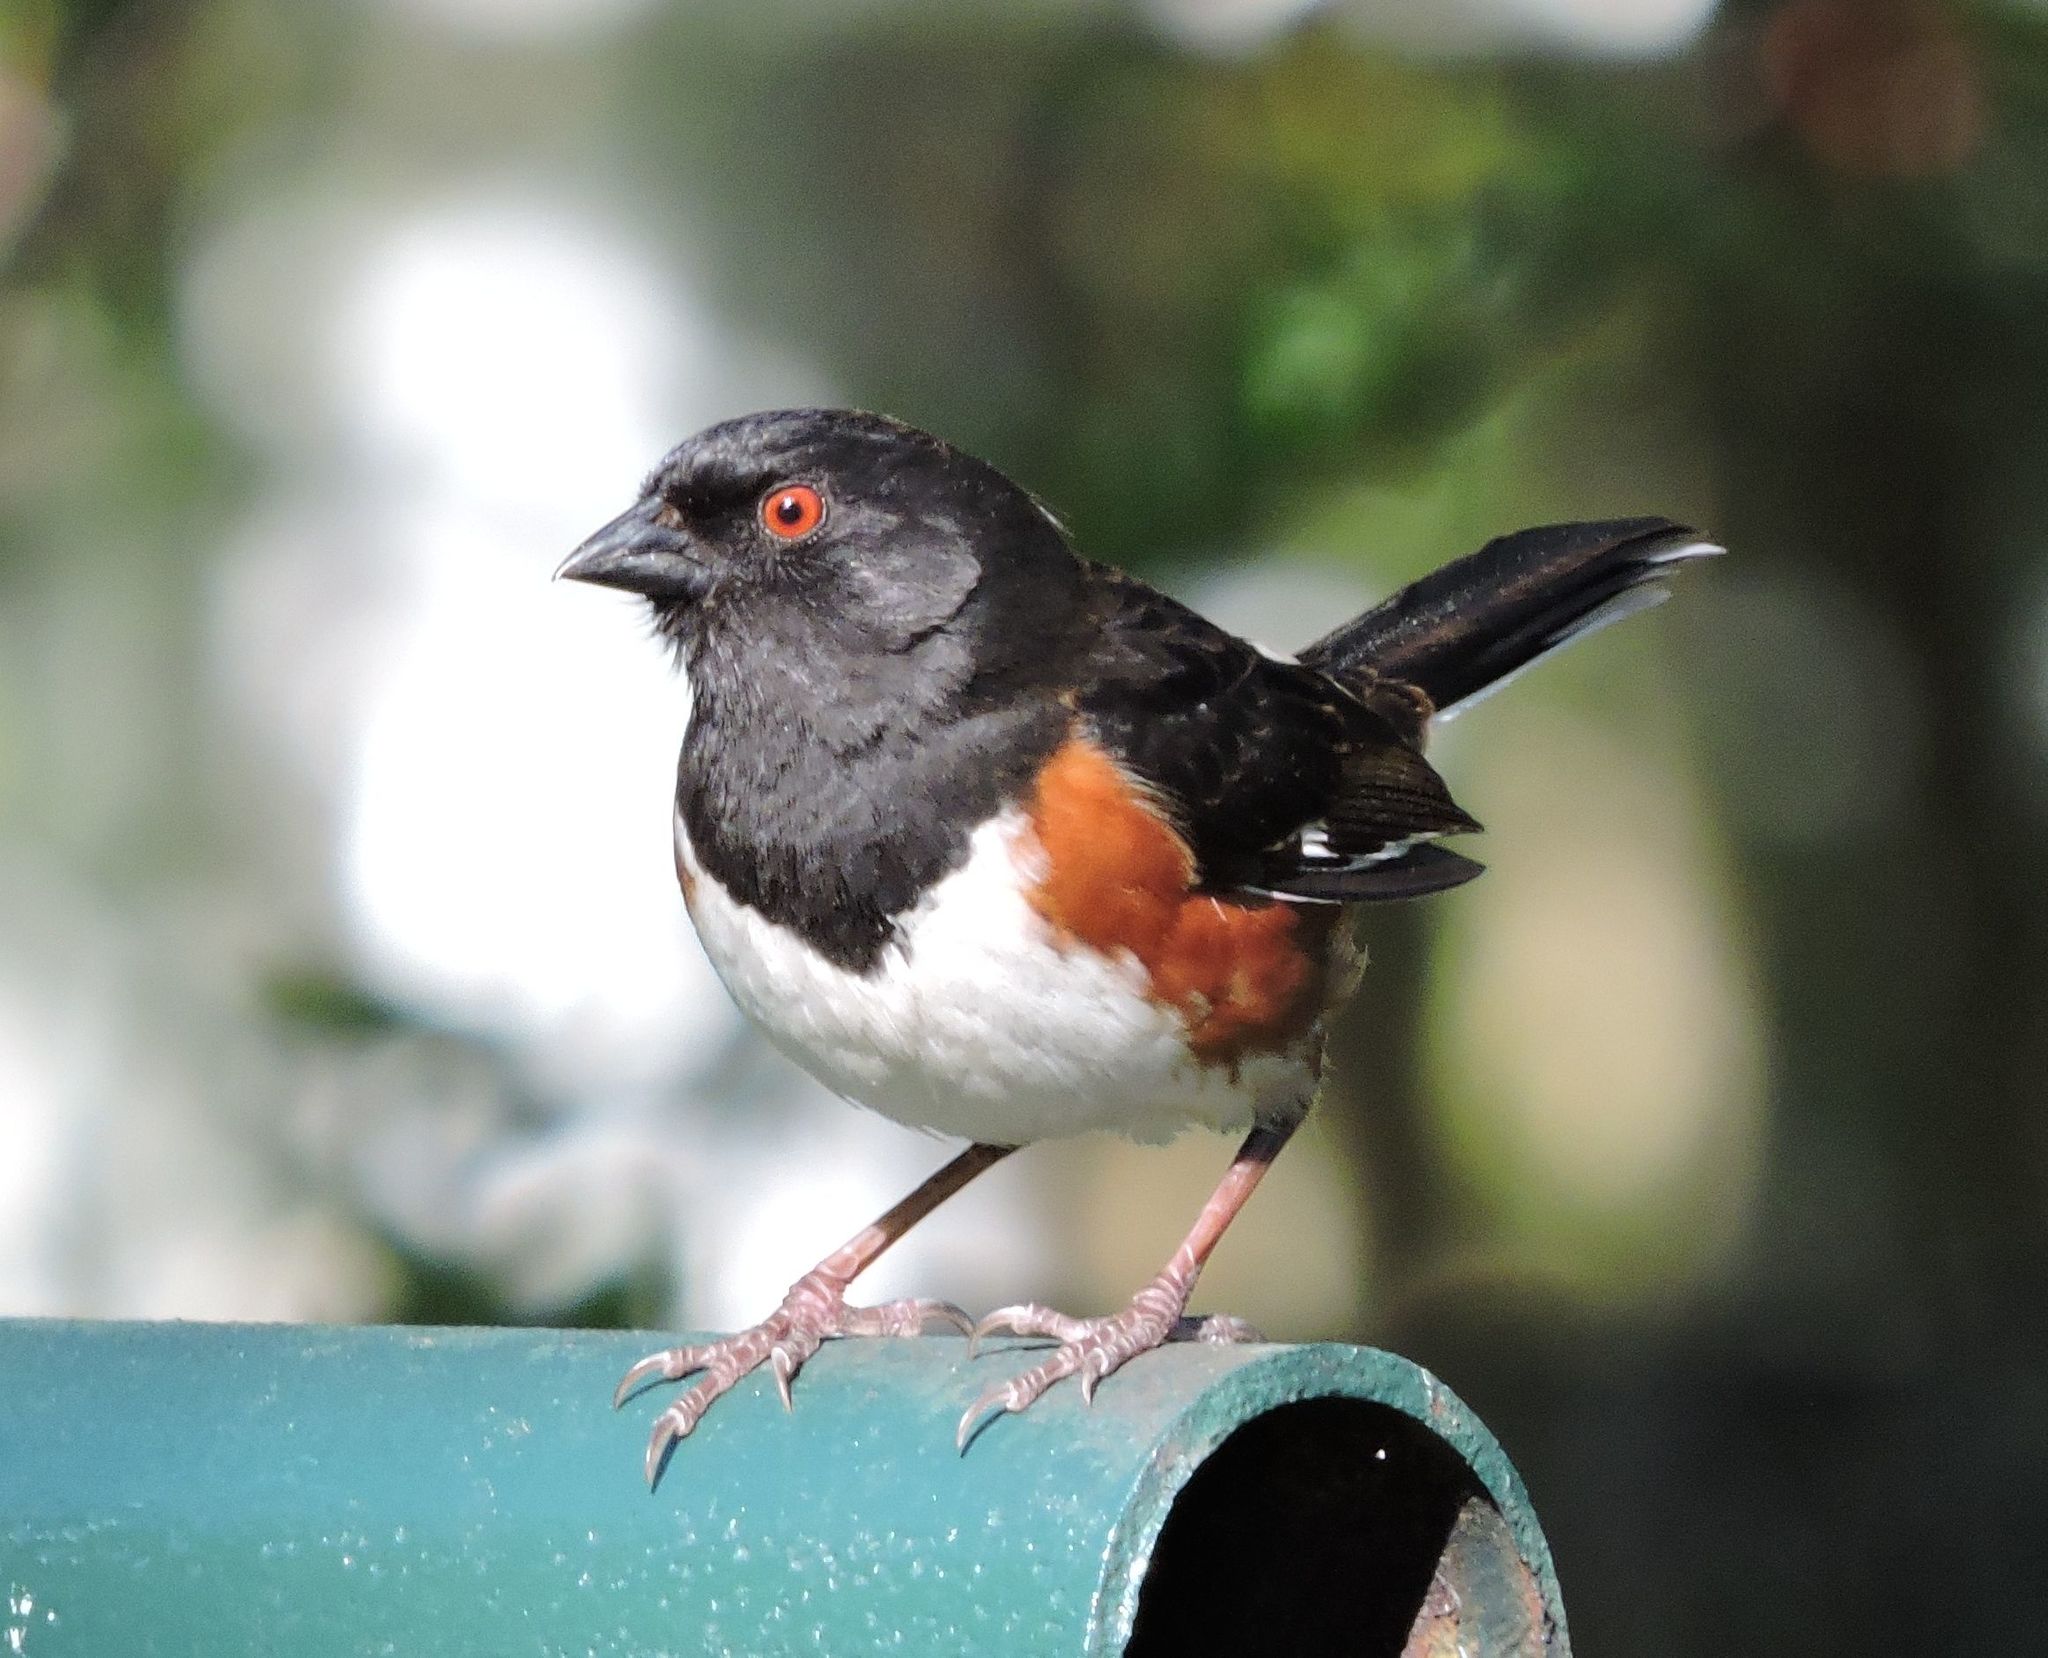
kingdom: Animalia
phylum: Chordata
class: Aves
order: Passeriformes
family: Passerellidae
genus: Pipilo
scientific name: Pipilo erythrophthalmus
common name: Eastern towhee
